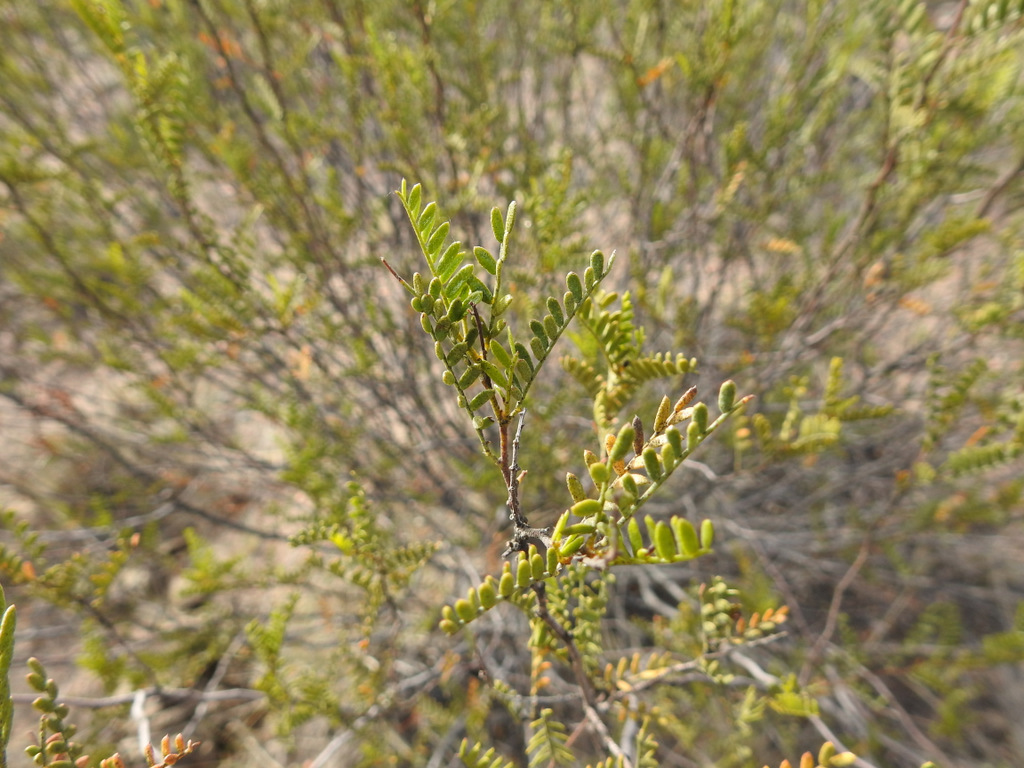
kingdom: Plantae
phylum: Tracheophyta
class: Magnoliopsida
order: Fabales
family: Fabaceae
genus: Zuccagnia
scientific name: Zuccagnia punctata
